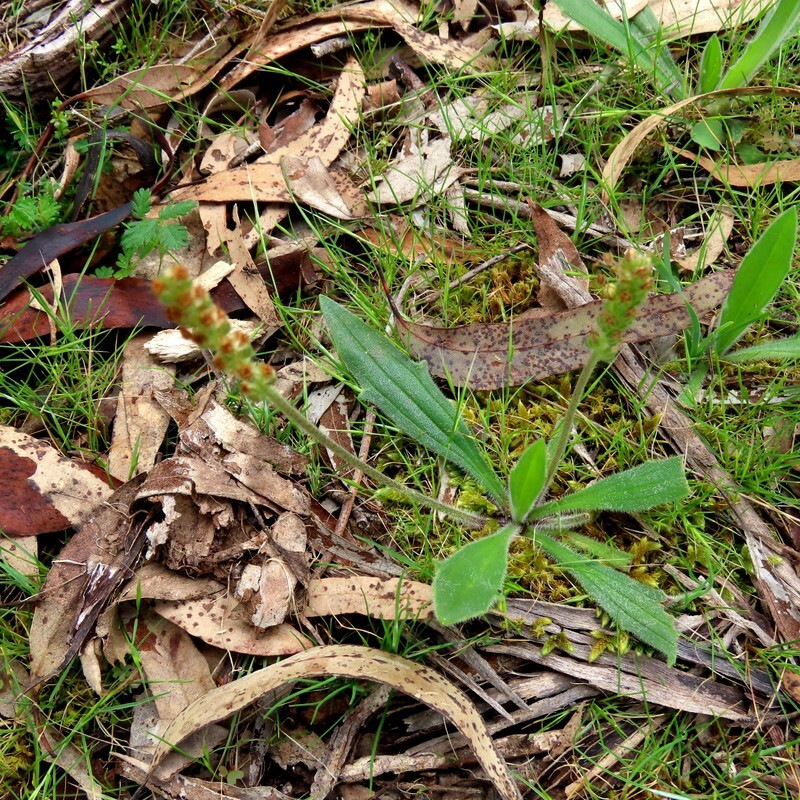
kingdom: Plantae
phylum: Tracheophyta
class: Magnoliopsida
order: Lamiales
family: Plantaginaceae
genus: Plantago
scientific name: Plantago varia
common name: Variable plantain
